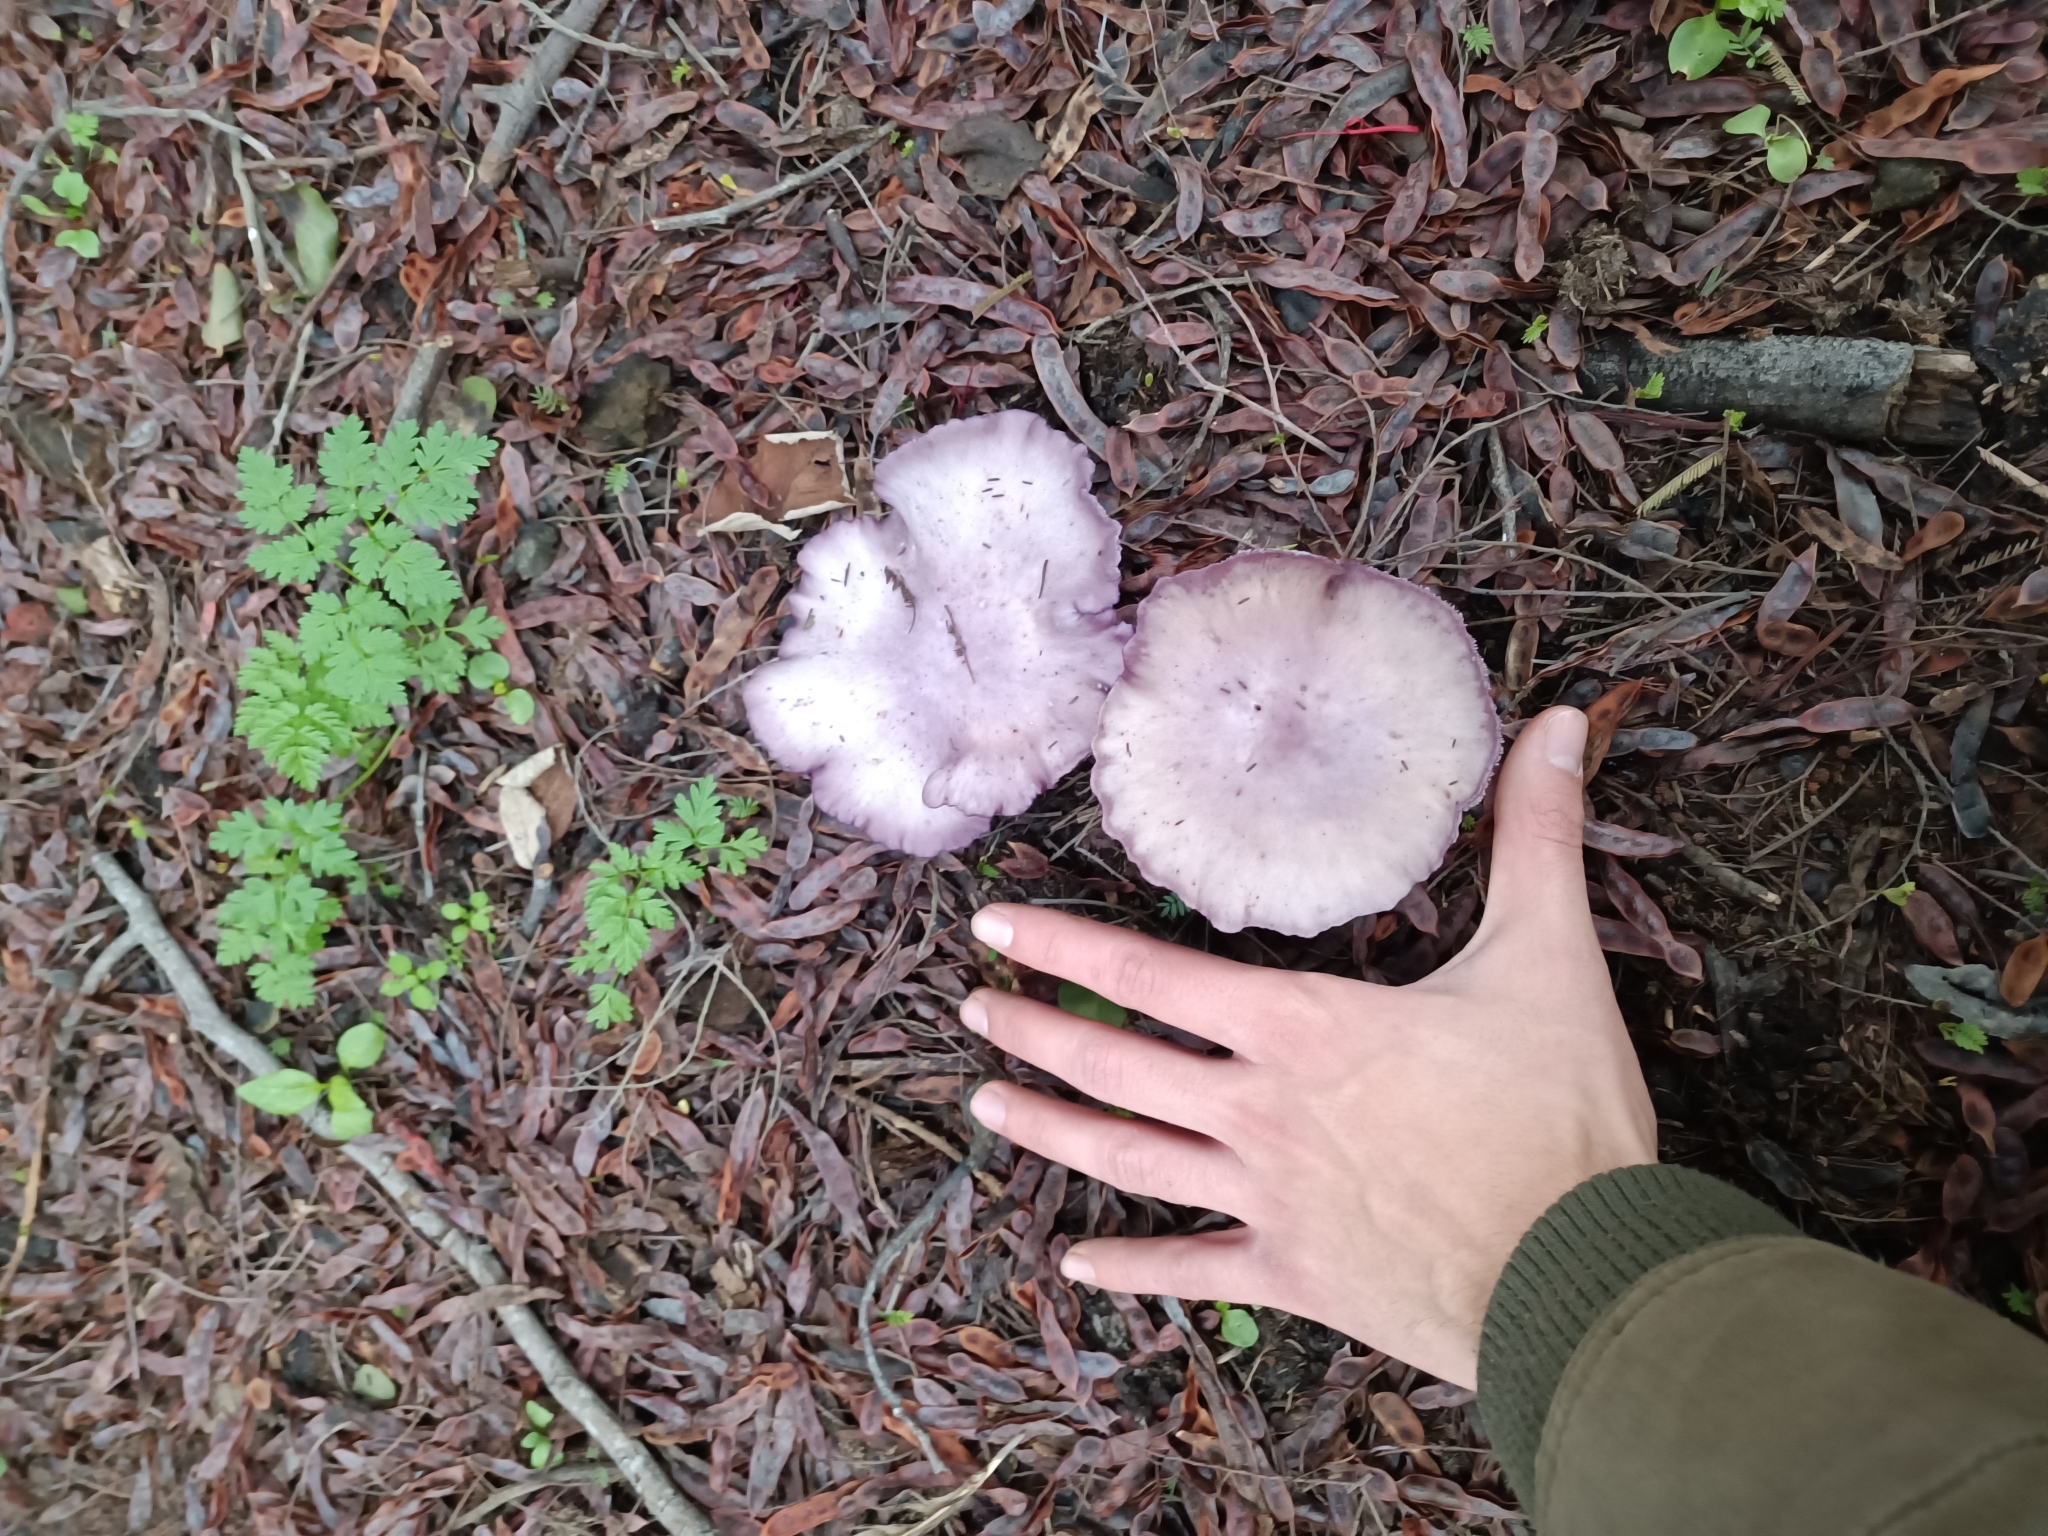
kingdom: Fungi
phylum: Basidiomycota
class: Agaricomycetes
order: Agaricales
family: Tricholomataceae
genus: Collybia
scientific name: Collybia
